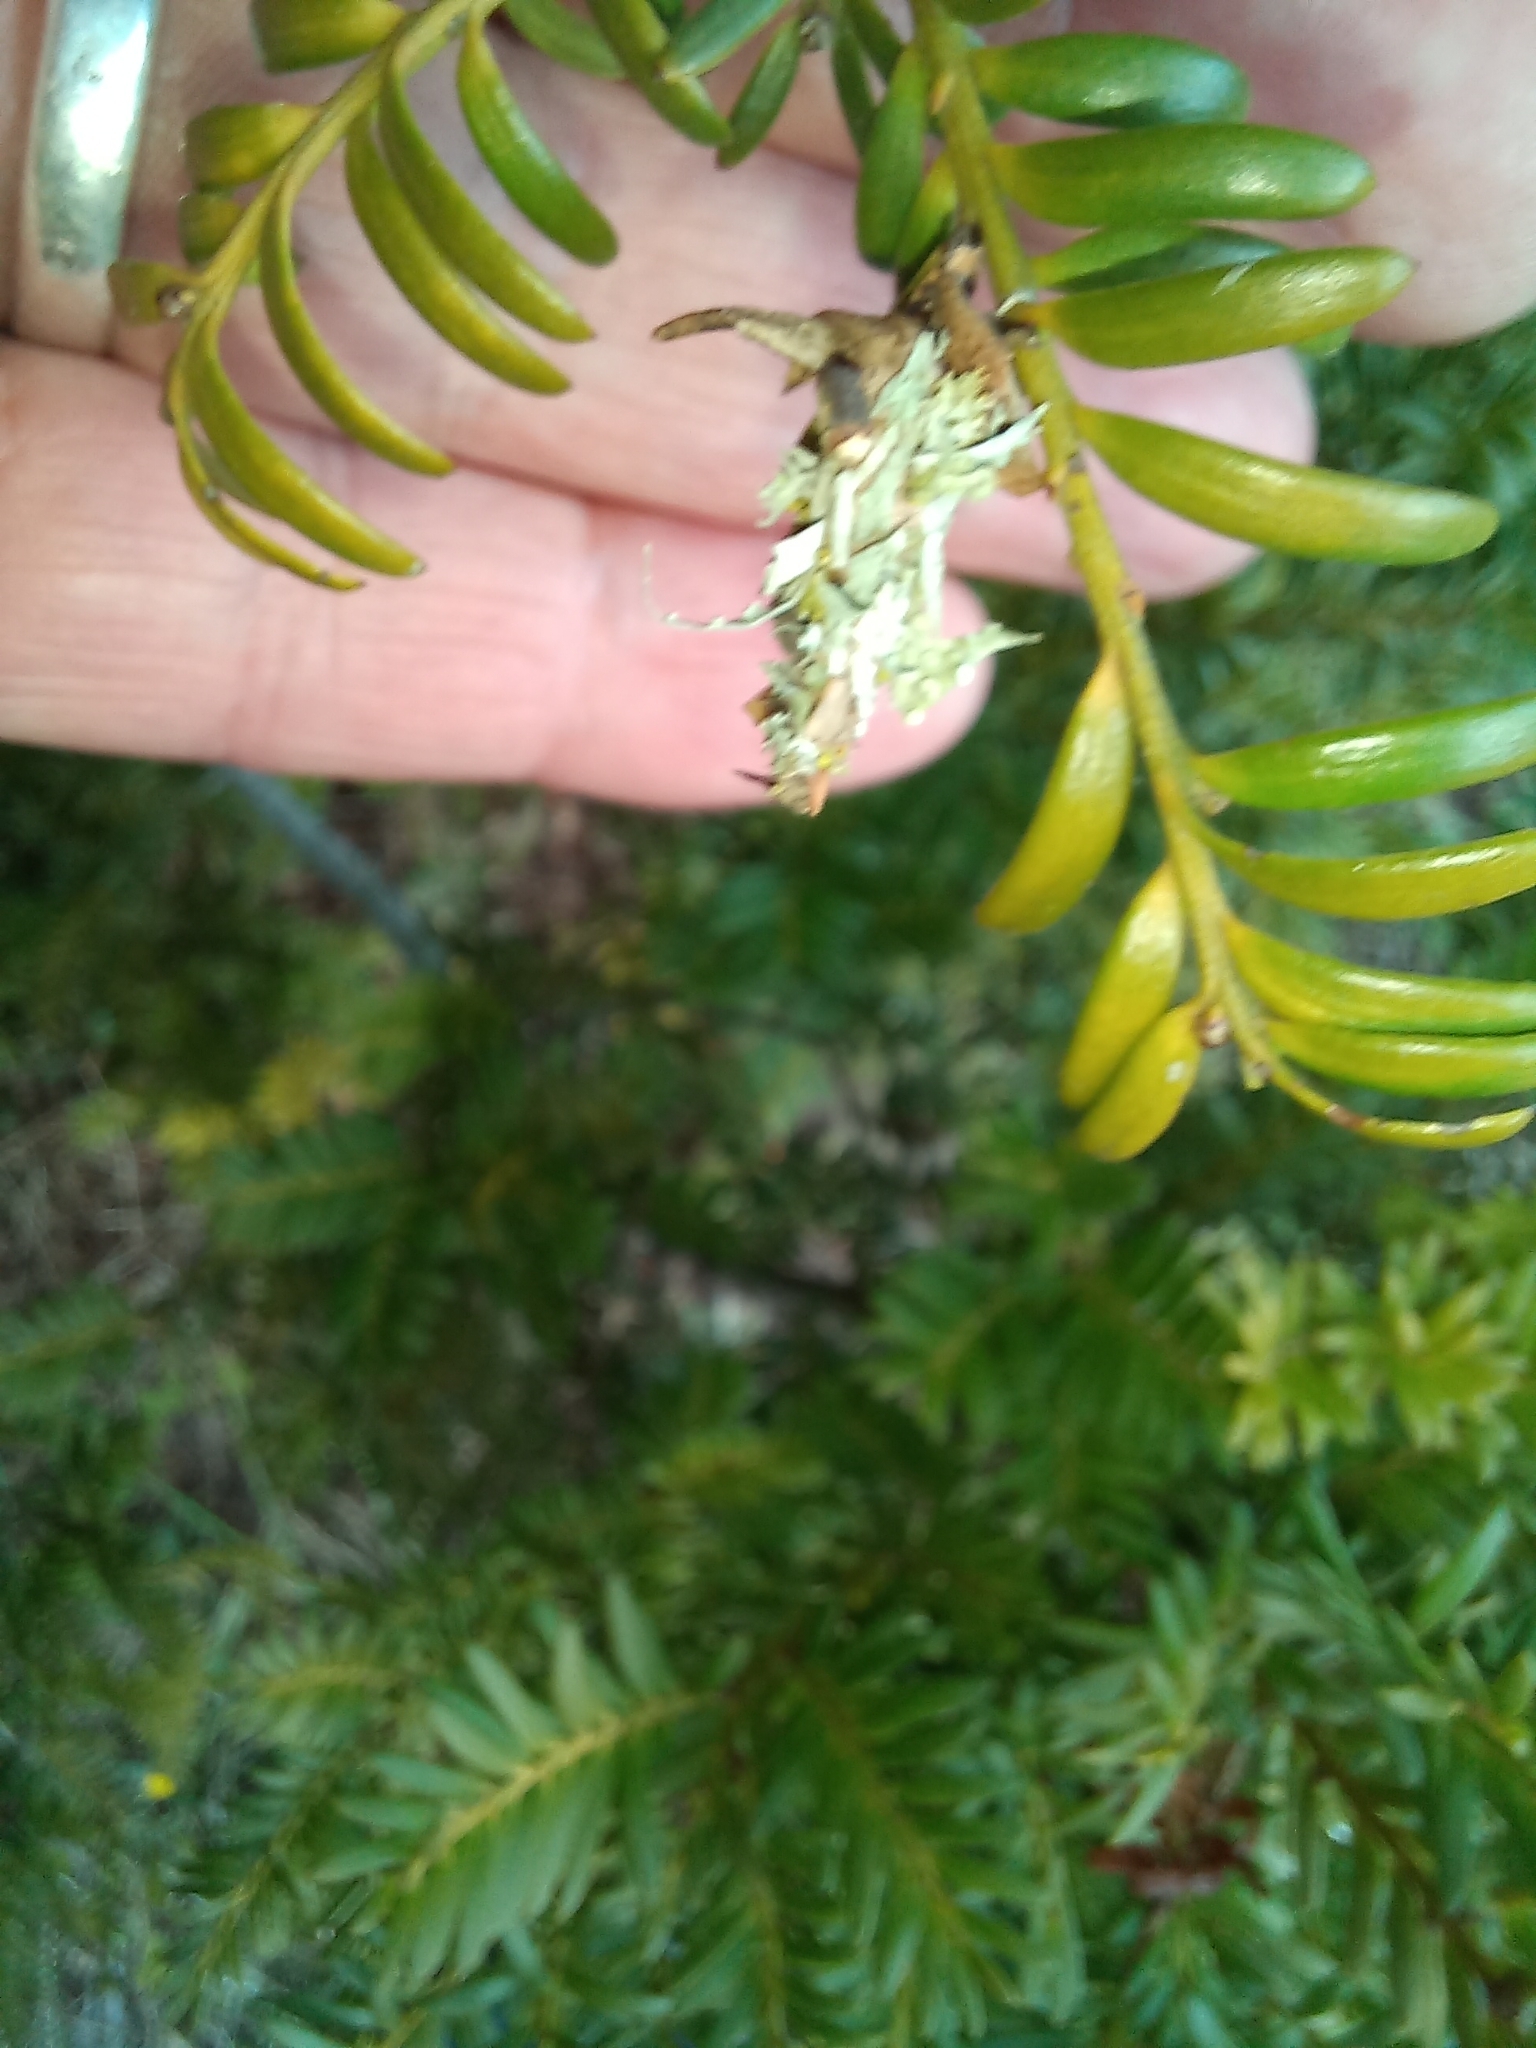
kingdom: Animalia
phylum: Arthropoda
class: Insecta
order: Lepidoptera
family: Psychidae
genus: Liothula
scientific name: Liothula omnivora
